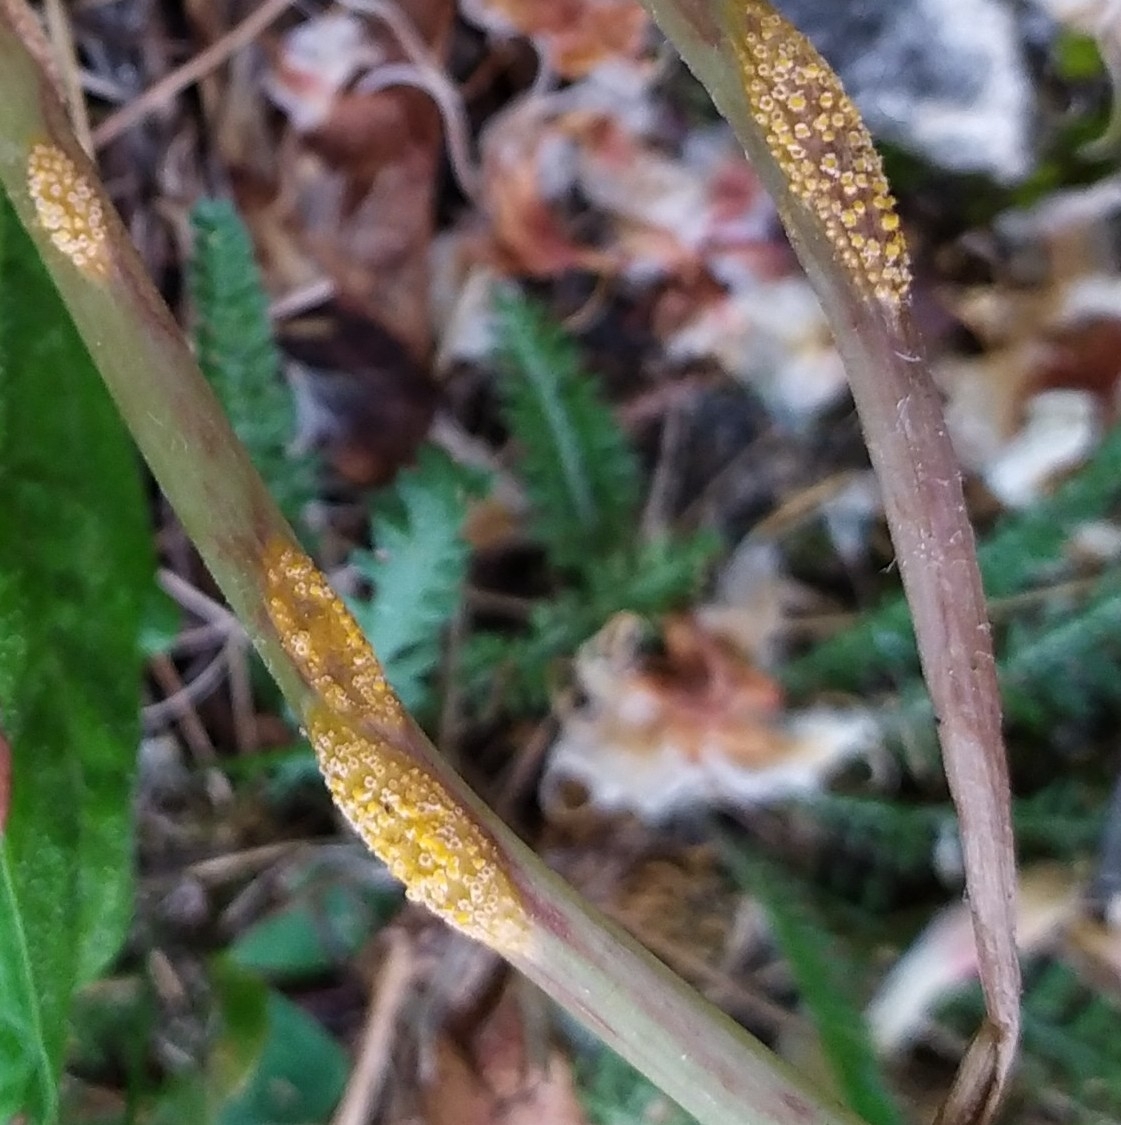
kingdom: Fungi
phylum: Basidiomycota
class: Pucciniomycetes
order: Pucciniales
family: Pucciniaceae
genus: Puccinia
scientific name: Puccinia dioicae
